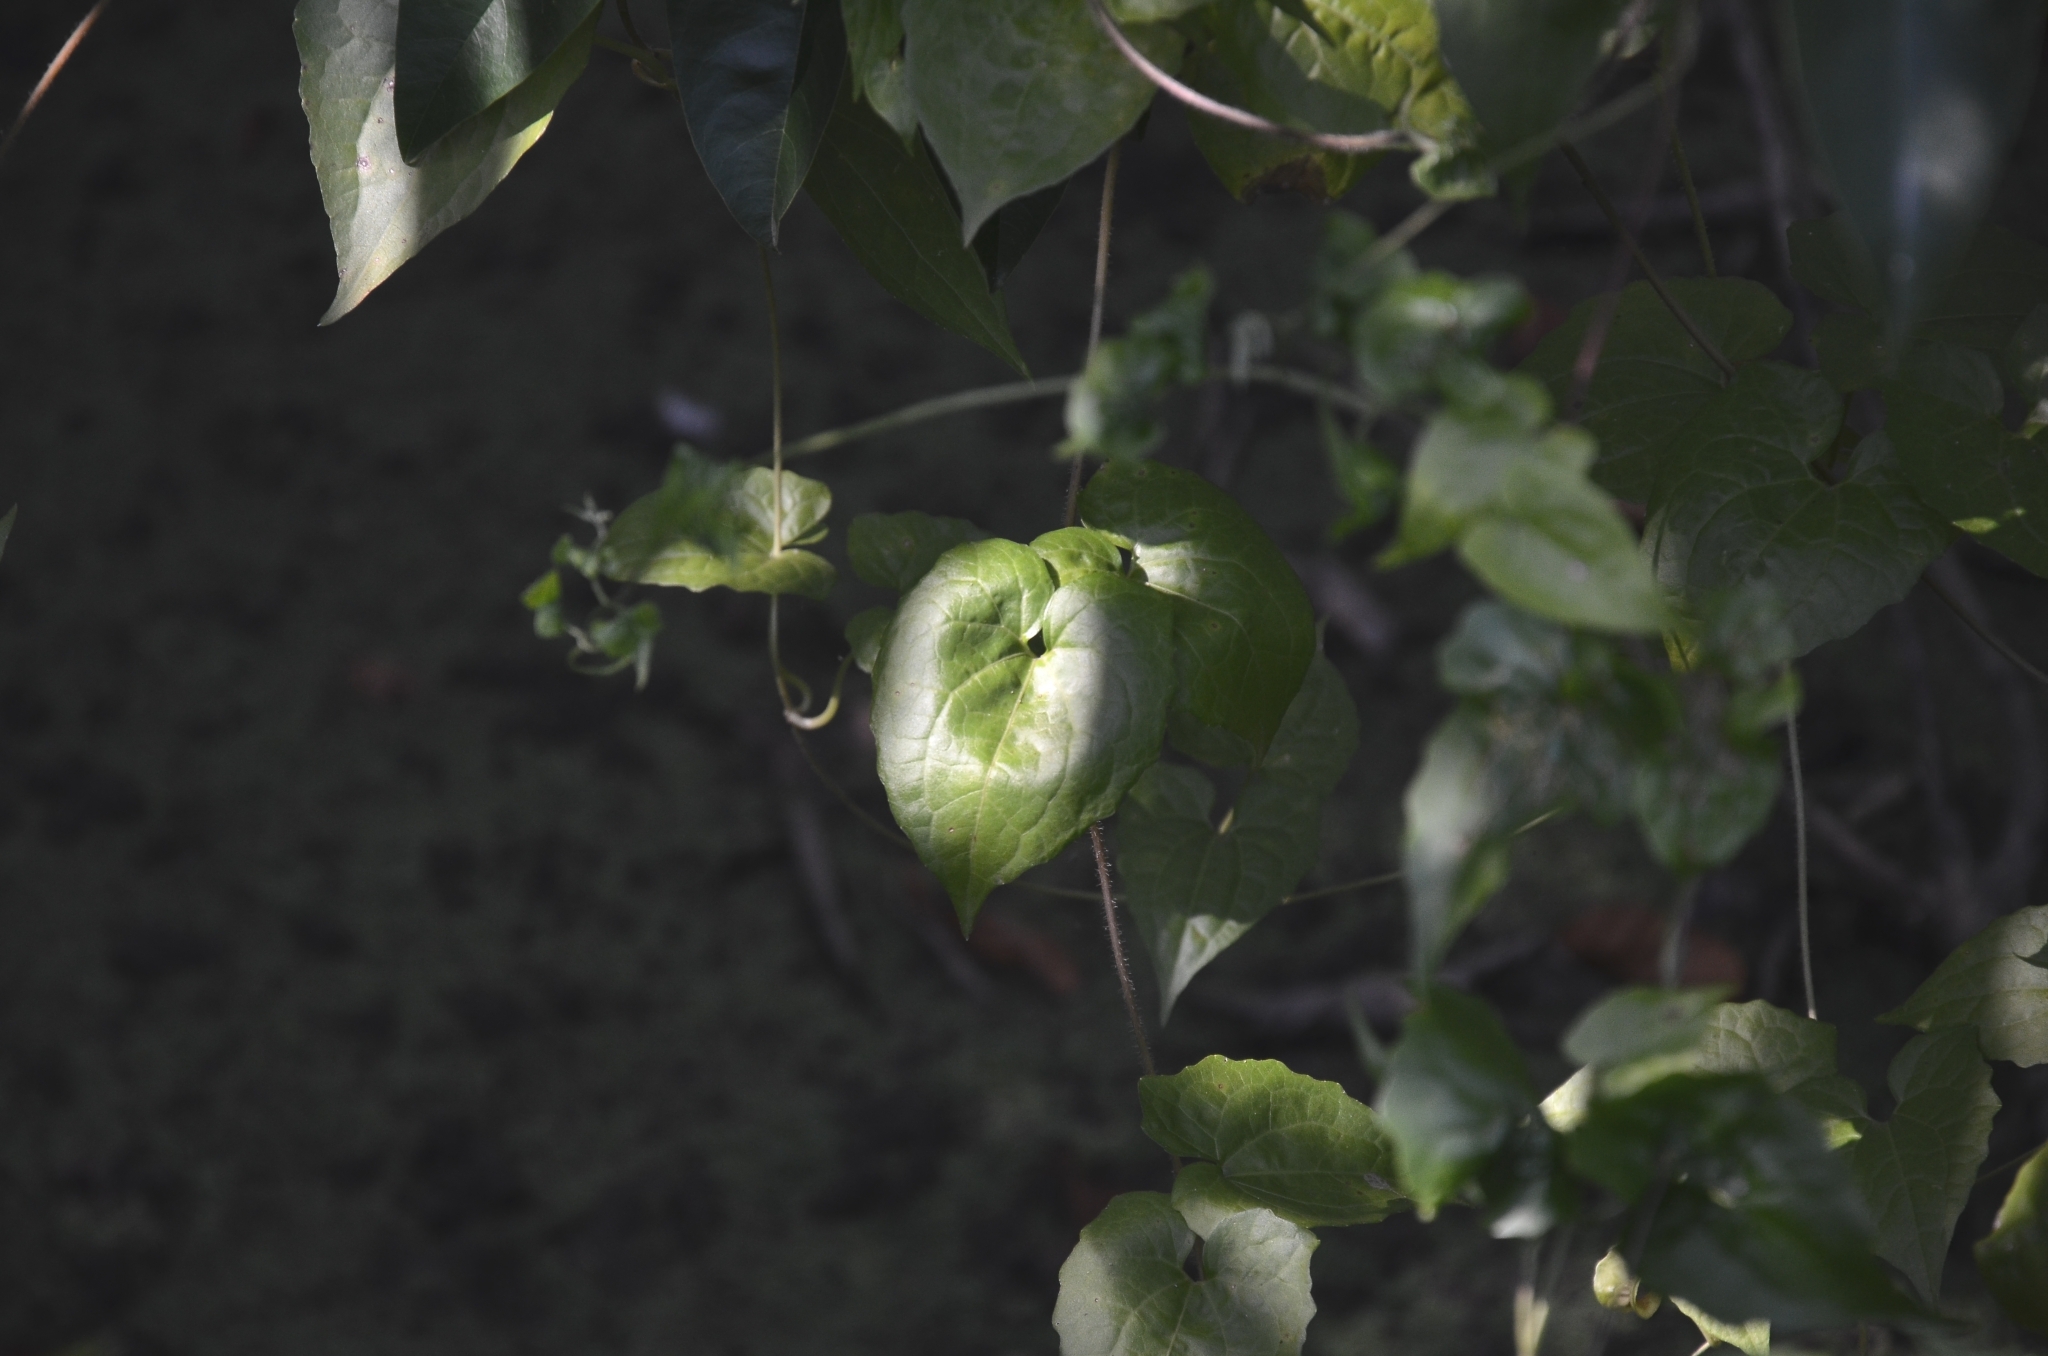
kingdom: Plantae
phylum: Tracheophyta
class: Magnoliopsida
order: Asterales
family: Asteraceae
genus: Mikania
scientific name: Mikania micrantha
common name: Mile-a-minute
